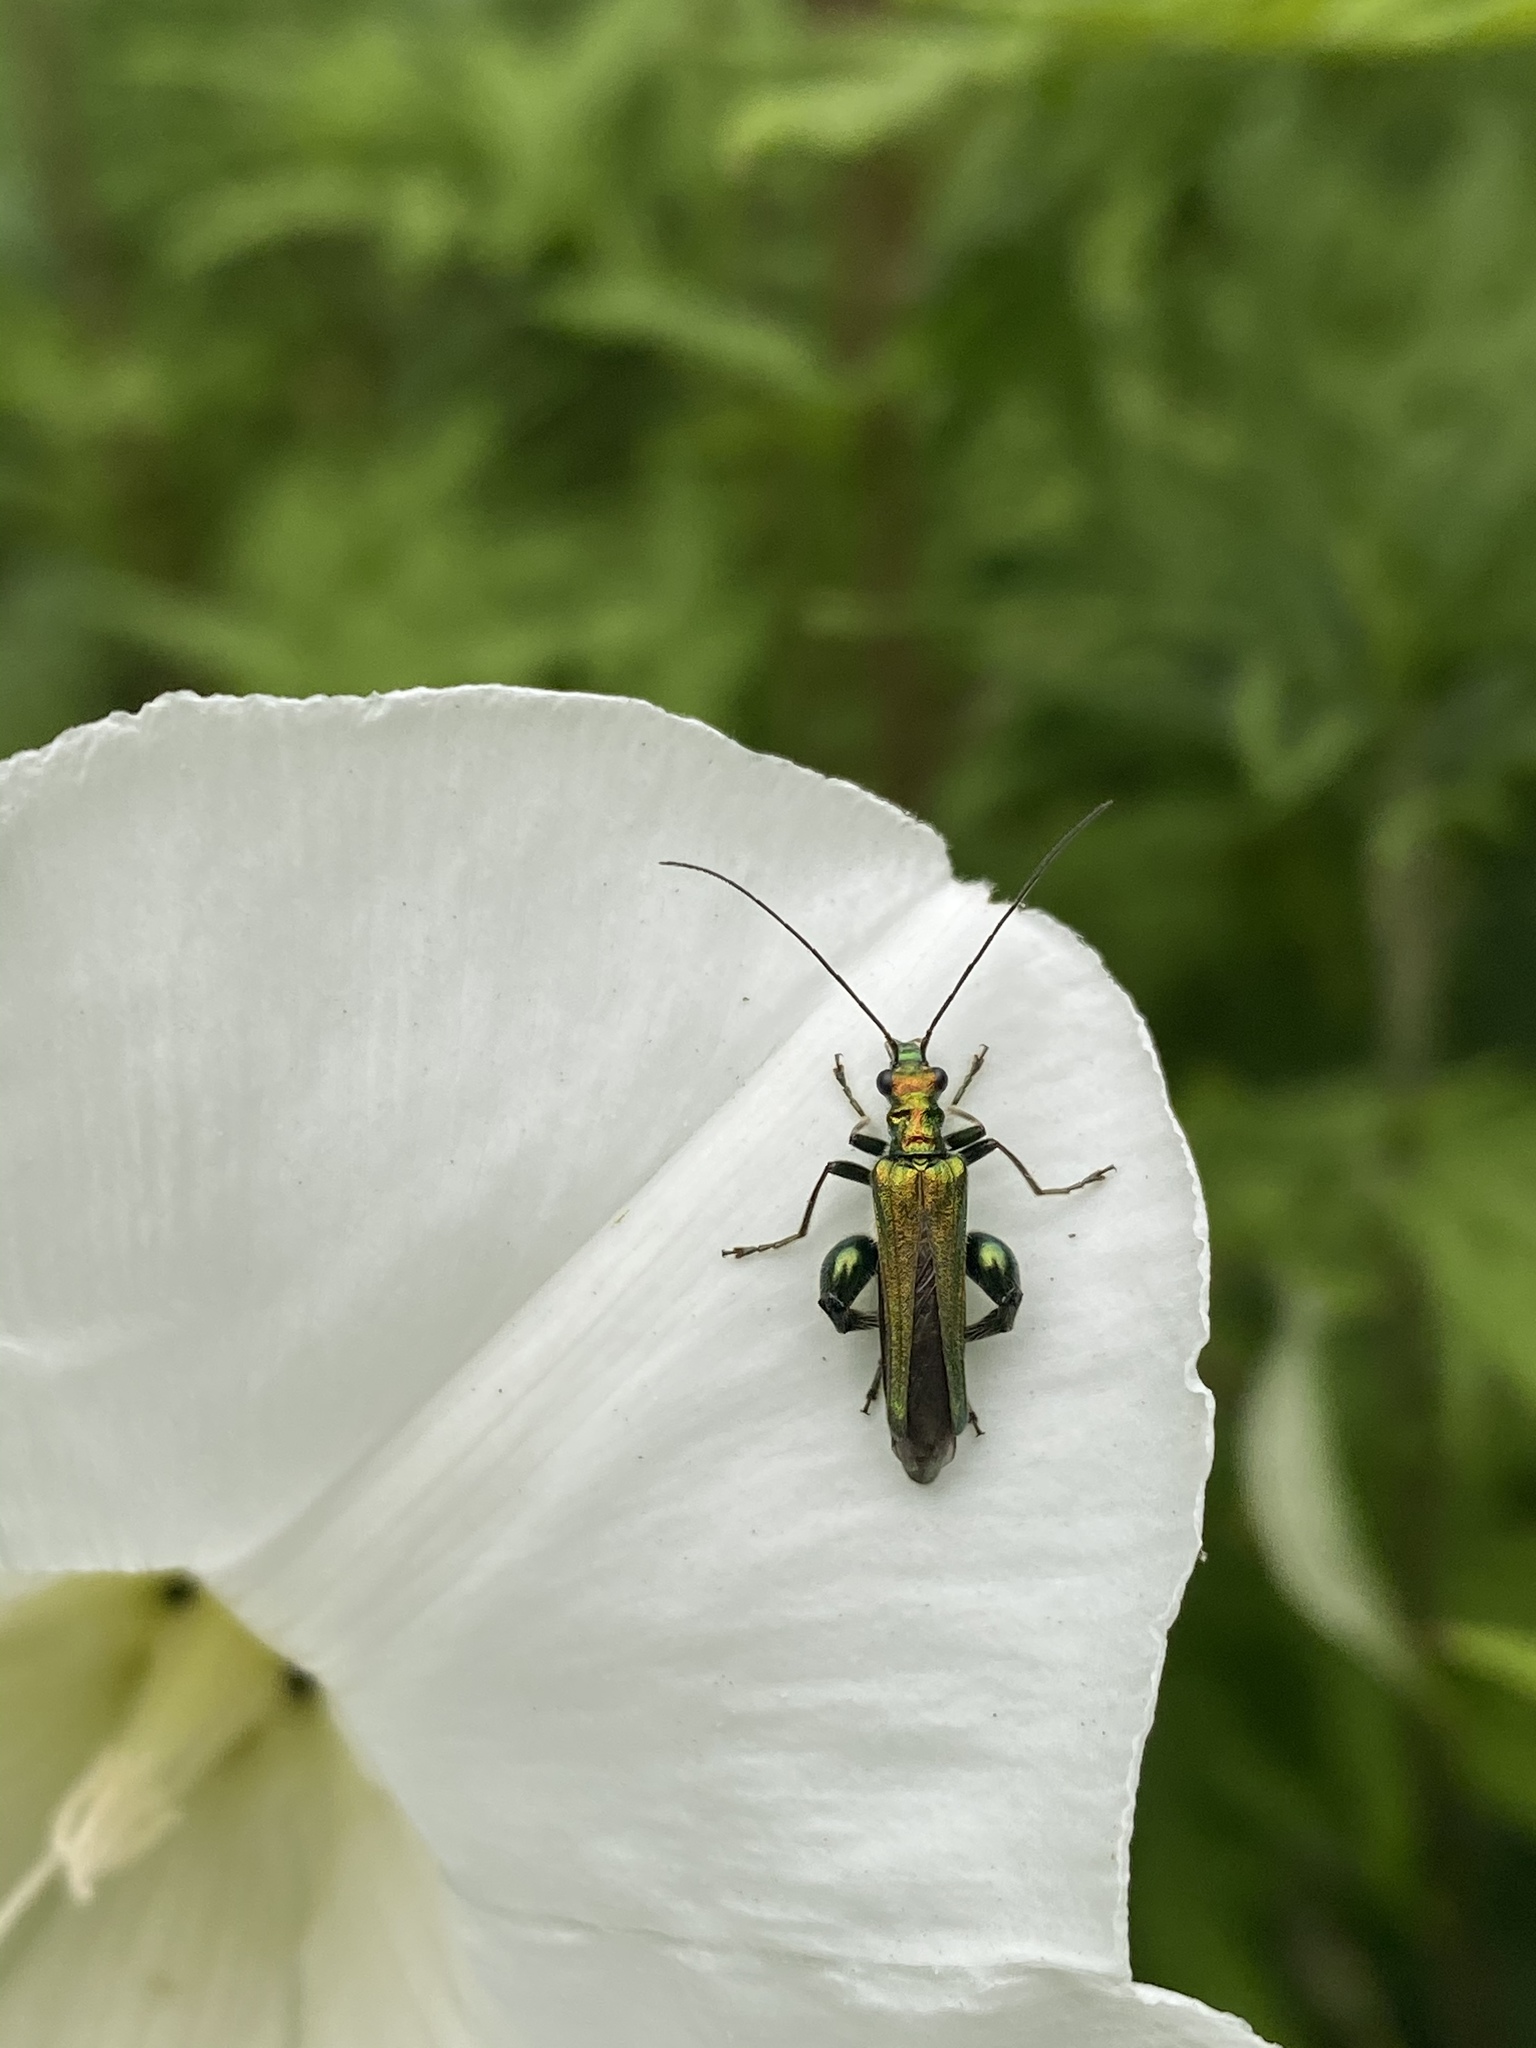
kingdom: Animalia
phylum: Arthropoda
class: Insecta
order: Coleoptera
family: Oedemeridae
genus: Oedemera
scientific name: Oedemera nobilis
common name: Swollen-thighed beetle
